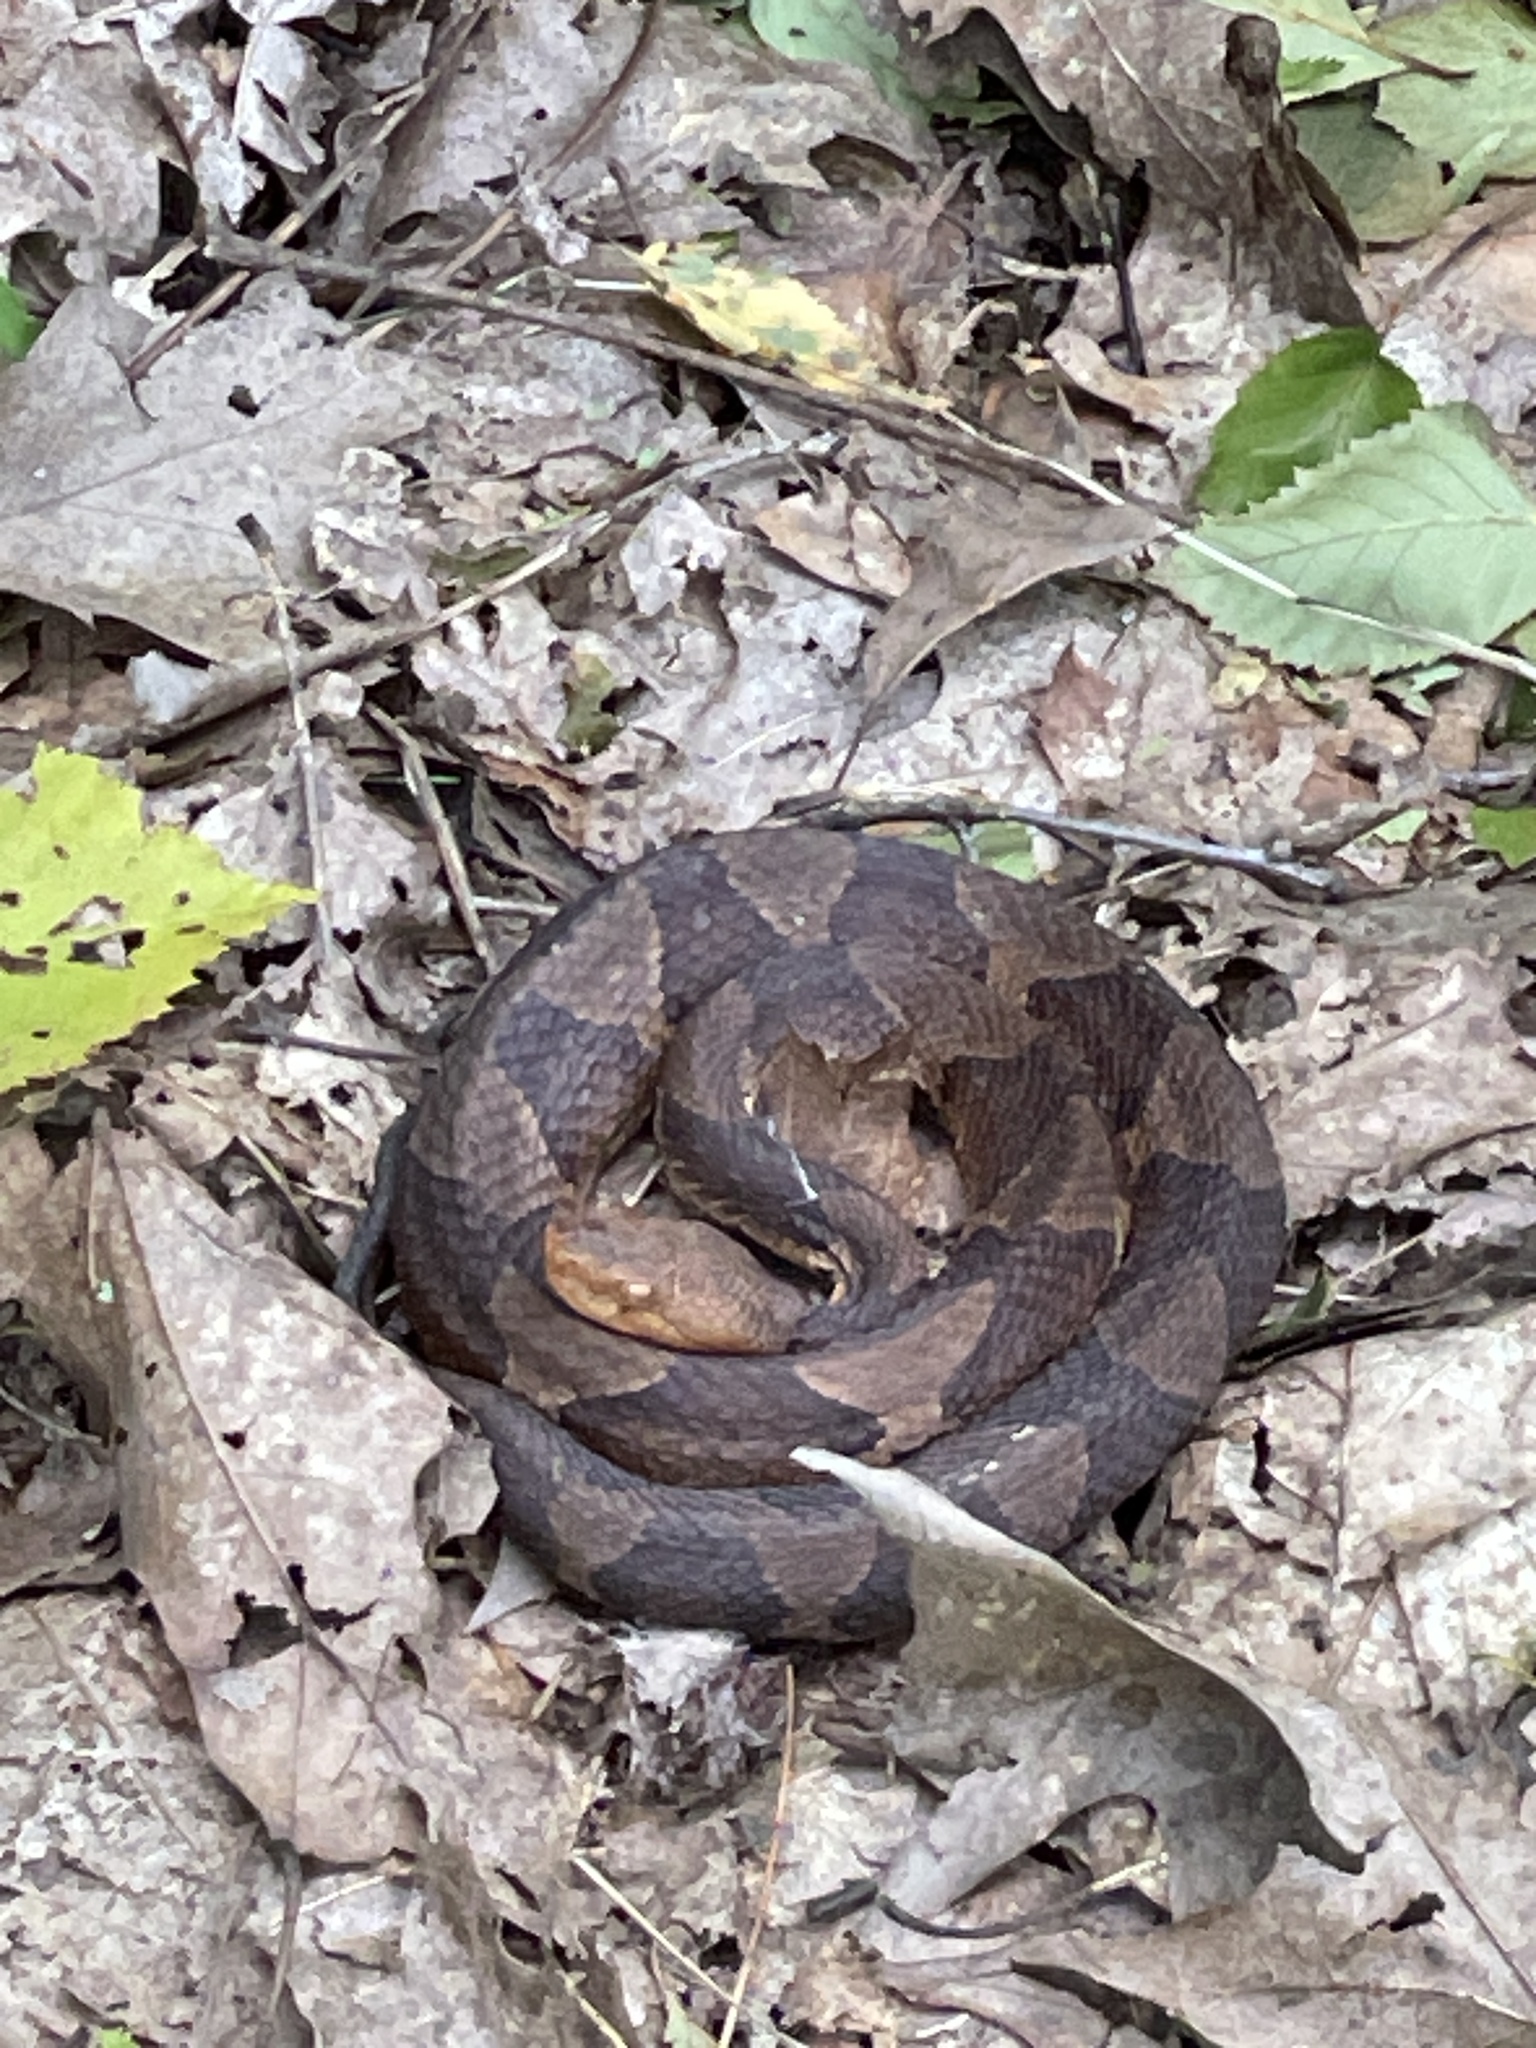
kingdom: Animalia
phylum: Chordata
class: Squamata
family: Viperidae
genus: Agkistrodon
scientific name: Agkistrodon contortrix
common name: Northern copperhead
